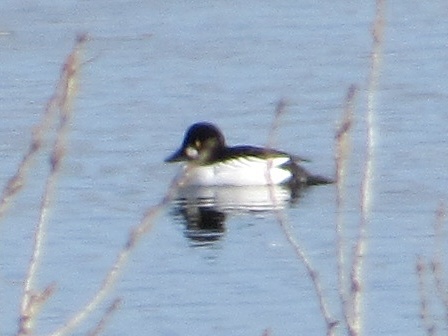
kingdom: Animalia
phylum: Chordata
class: Aves
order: Anseriformes
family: Anatidae
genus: Bucephala
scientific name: Bucephala clangula
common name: Common goldeneye
